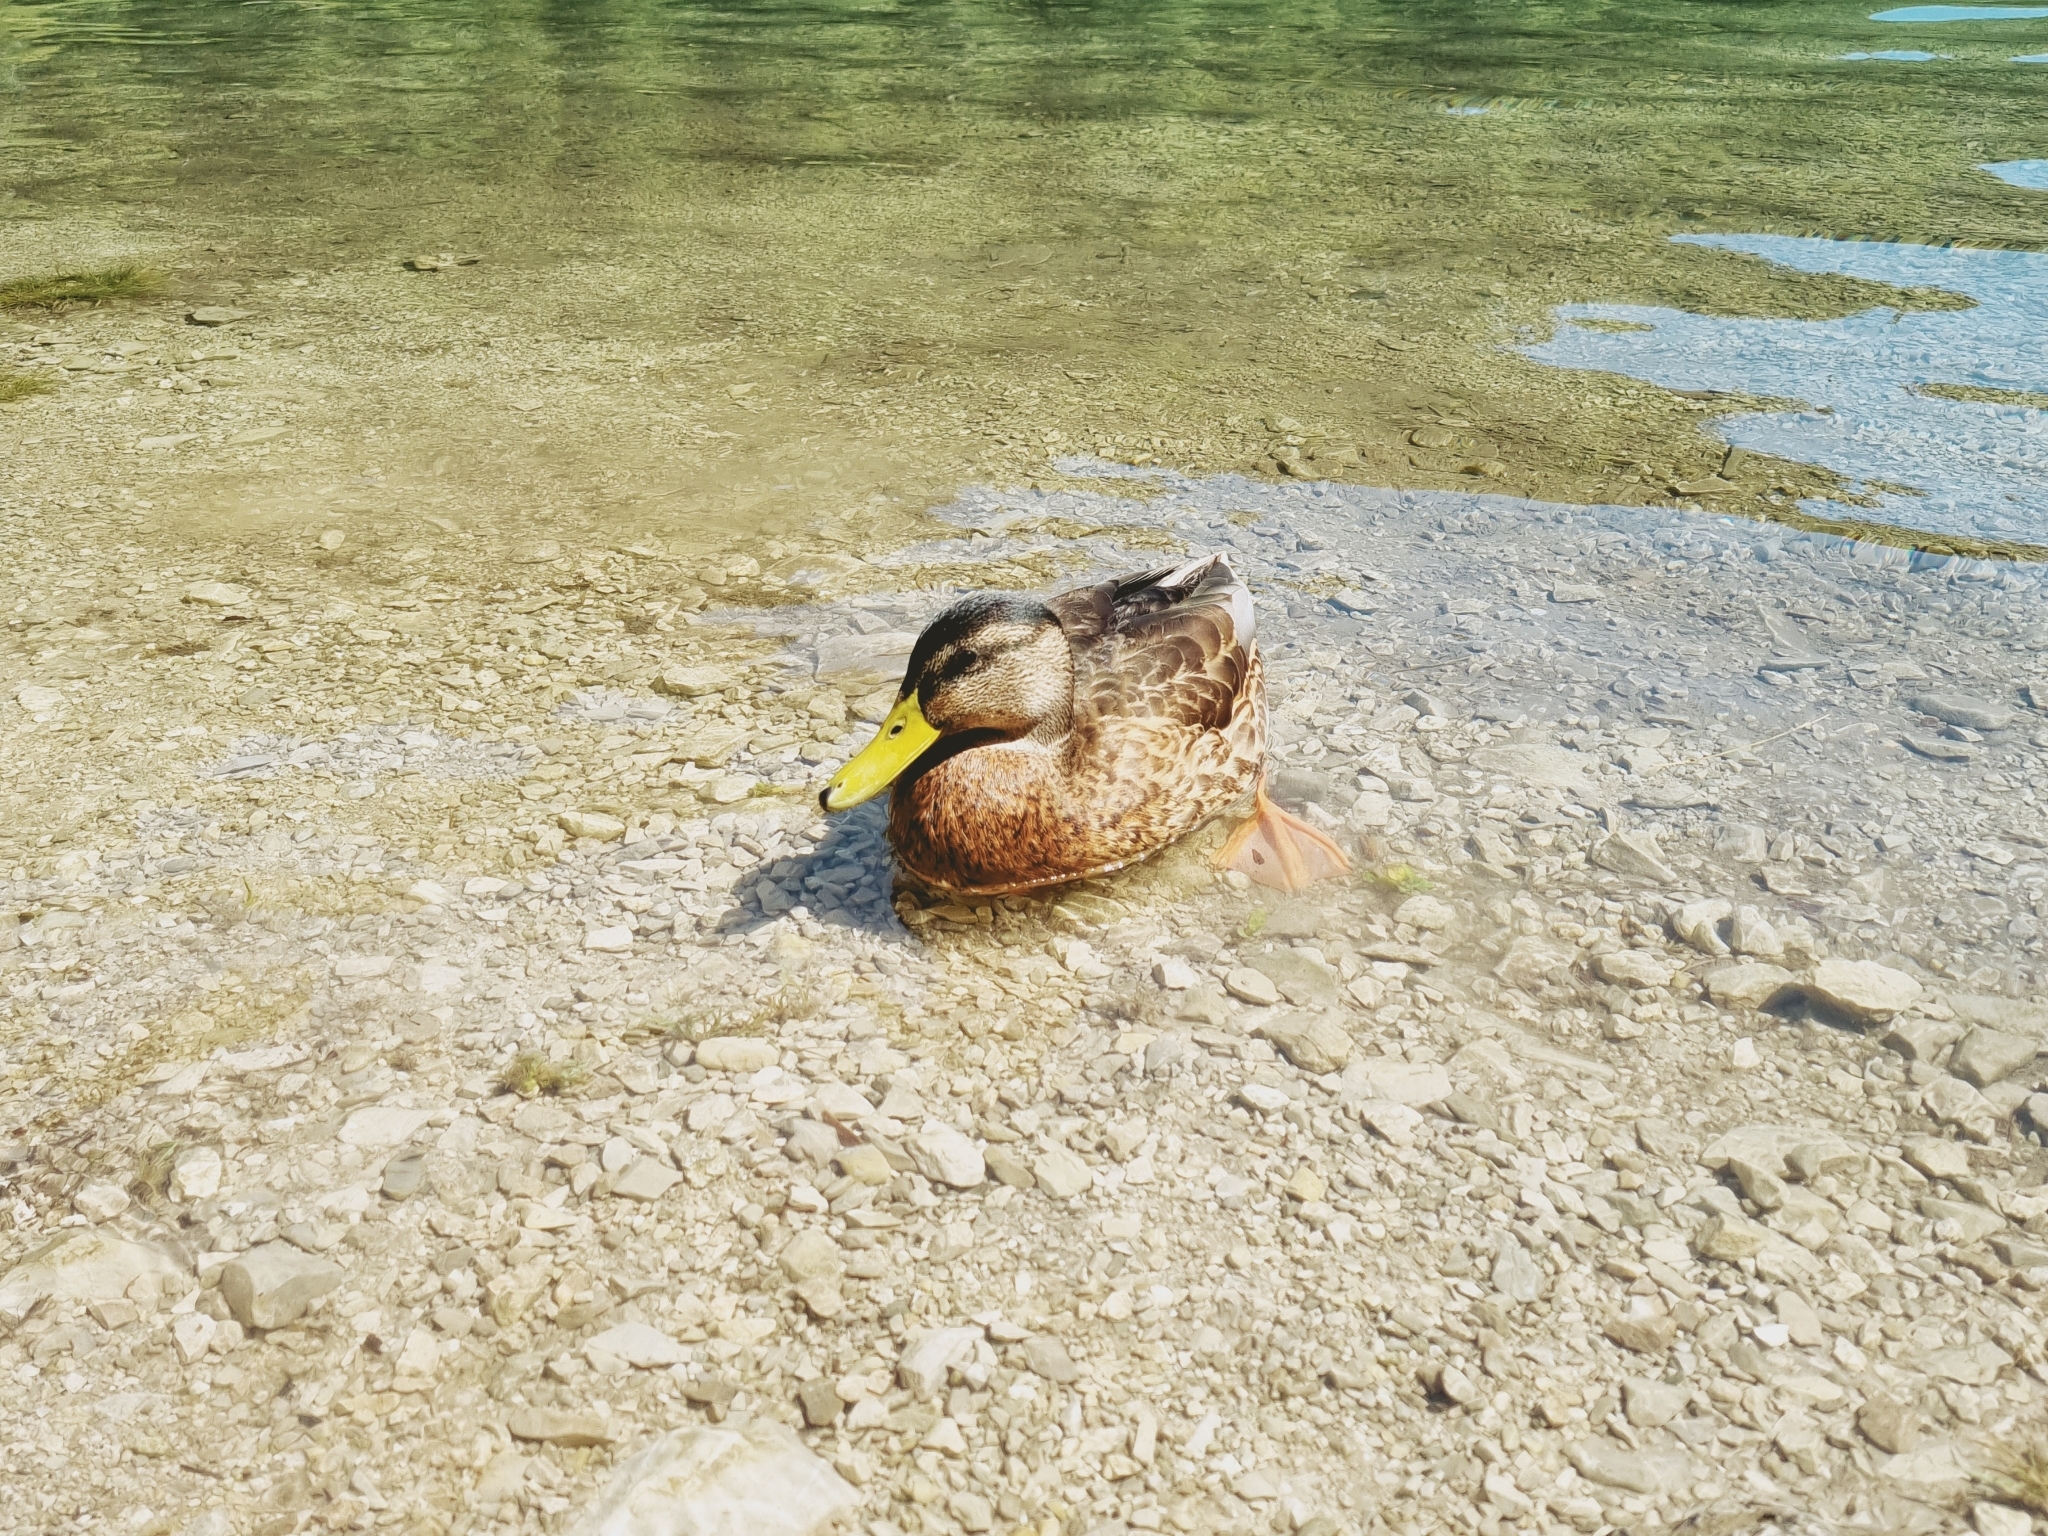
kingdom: Animalia
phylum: Chordata
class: Aves
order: Anseriformes
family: Anatidae
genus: Anas
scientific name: Anas platyrhynchos
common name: Mallard
